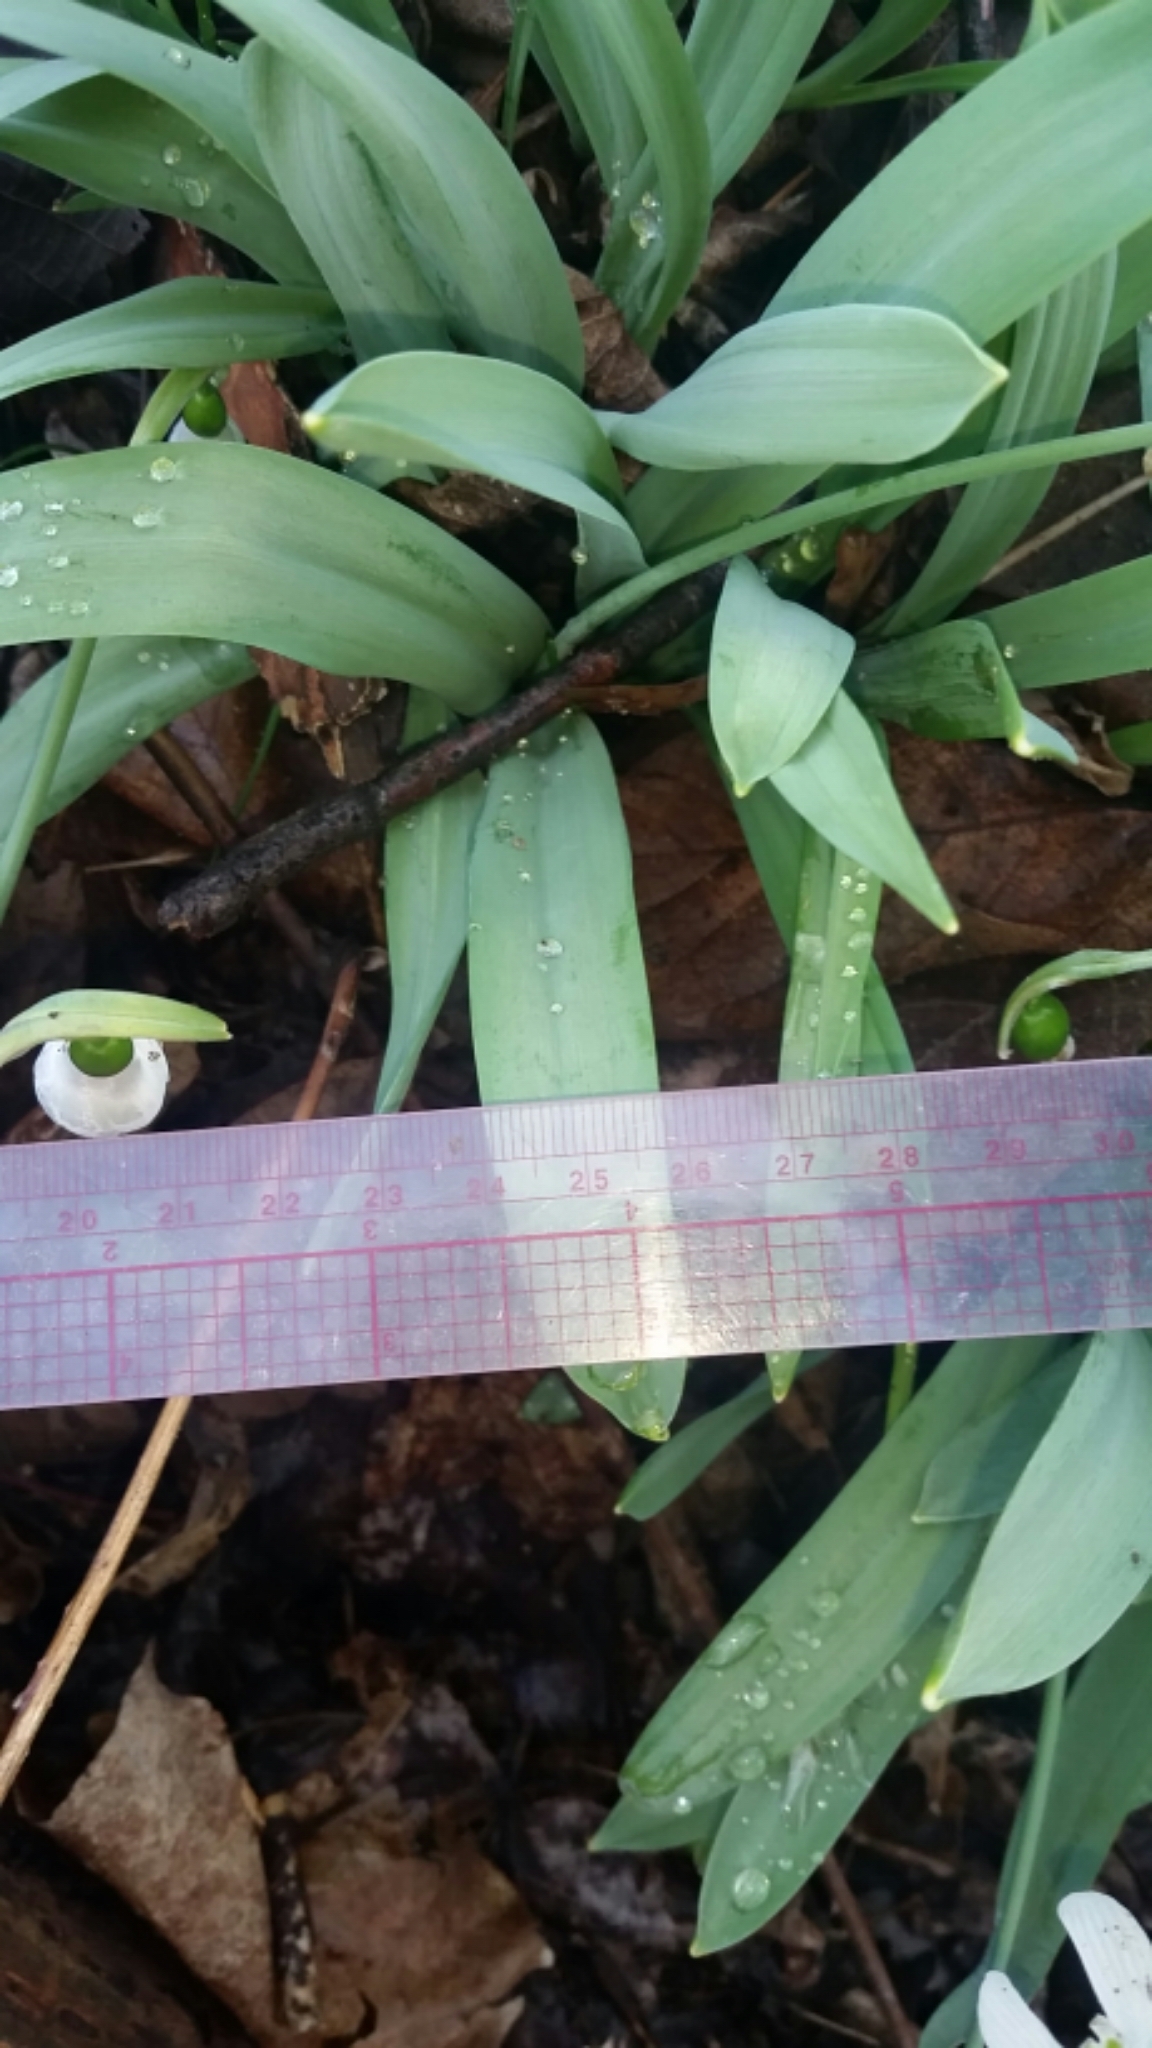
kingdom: Plantae
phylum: Tracheophyta
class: Liliopsida
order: Asparagales
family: Amaryllidaceae
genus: Galanthus
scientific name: Galanthus elwesii
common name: Greater snowdrop
